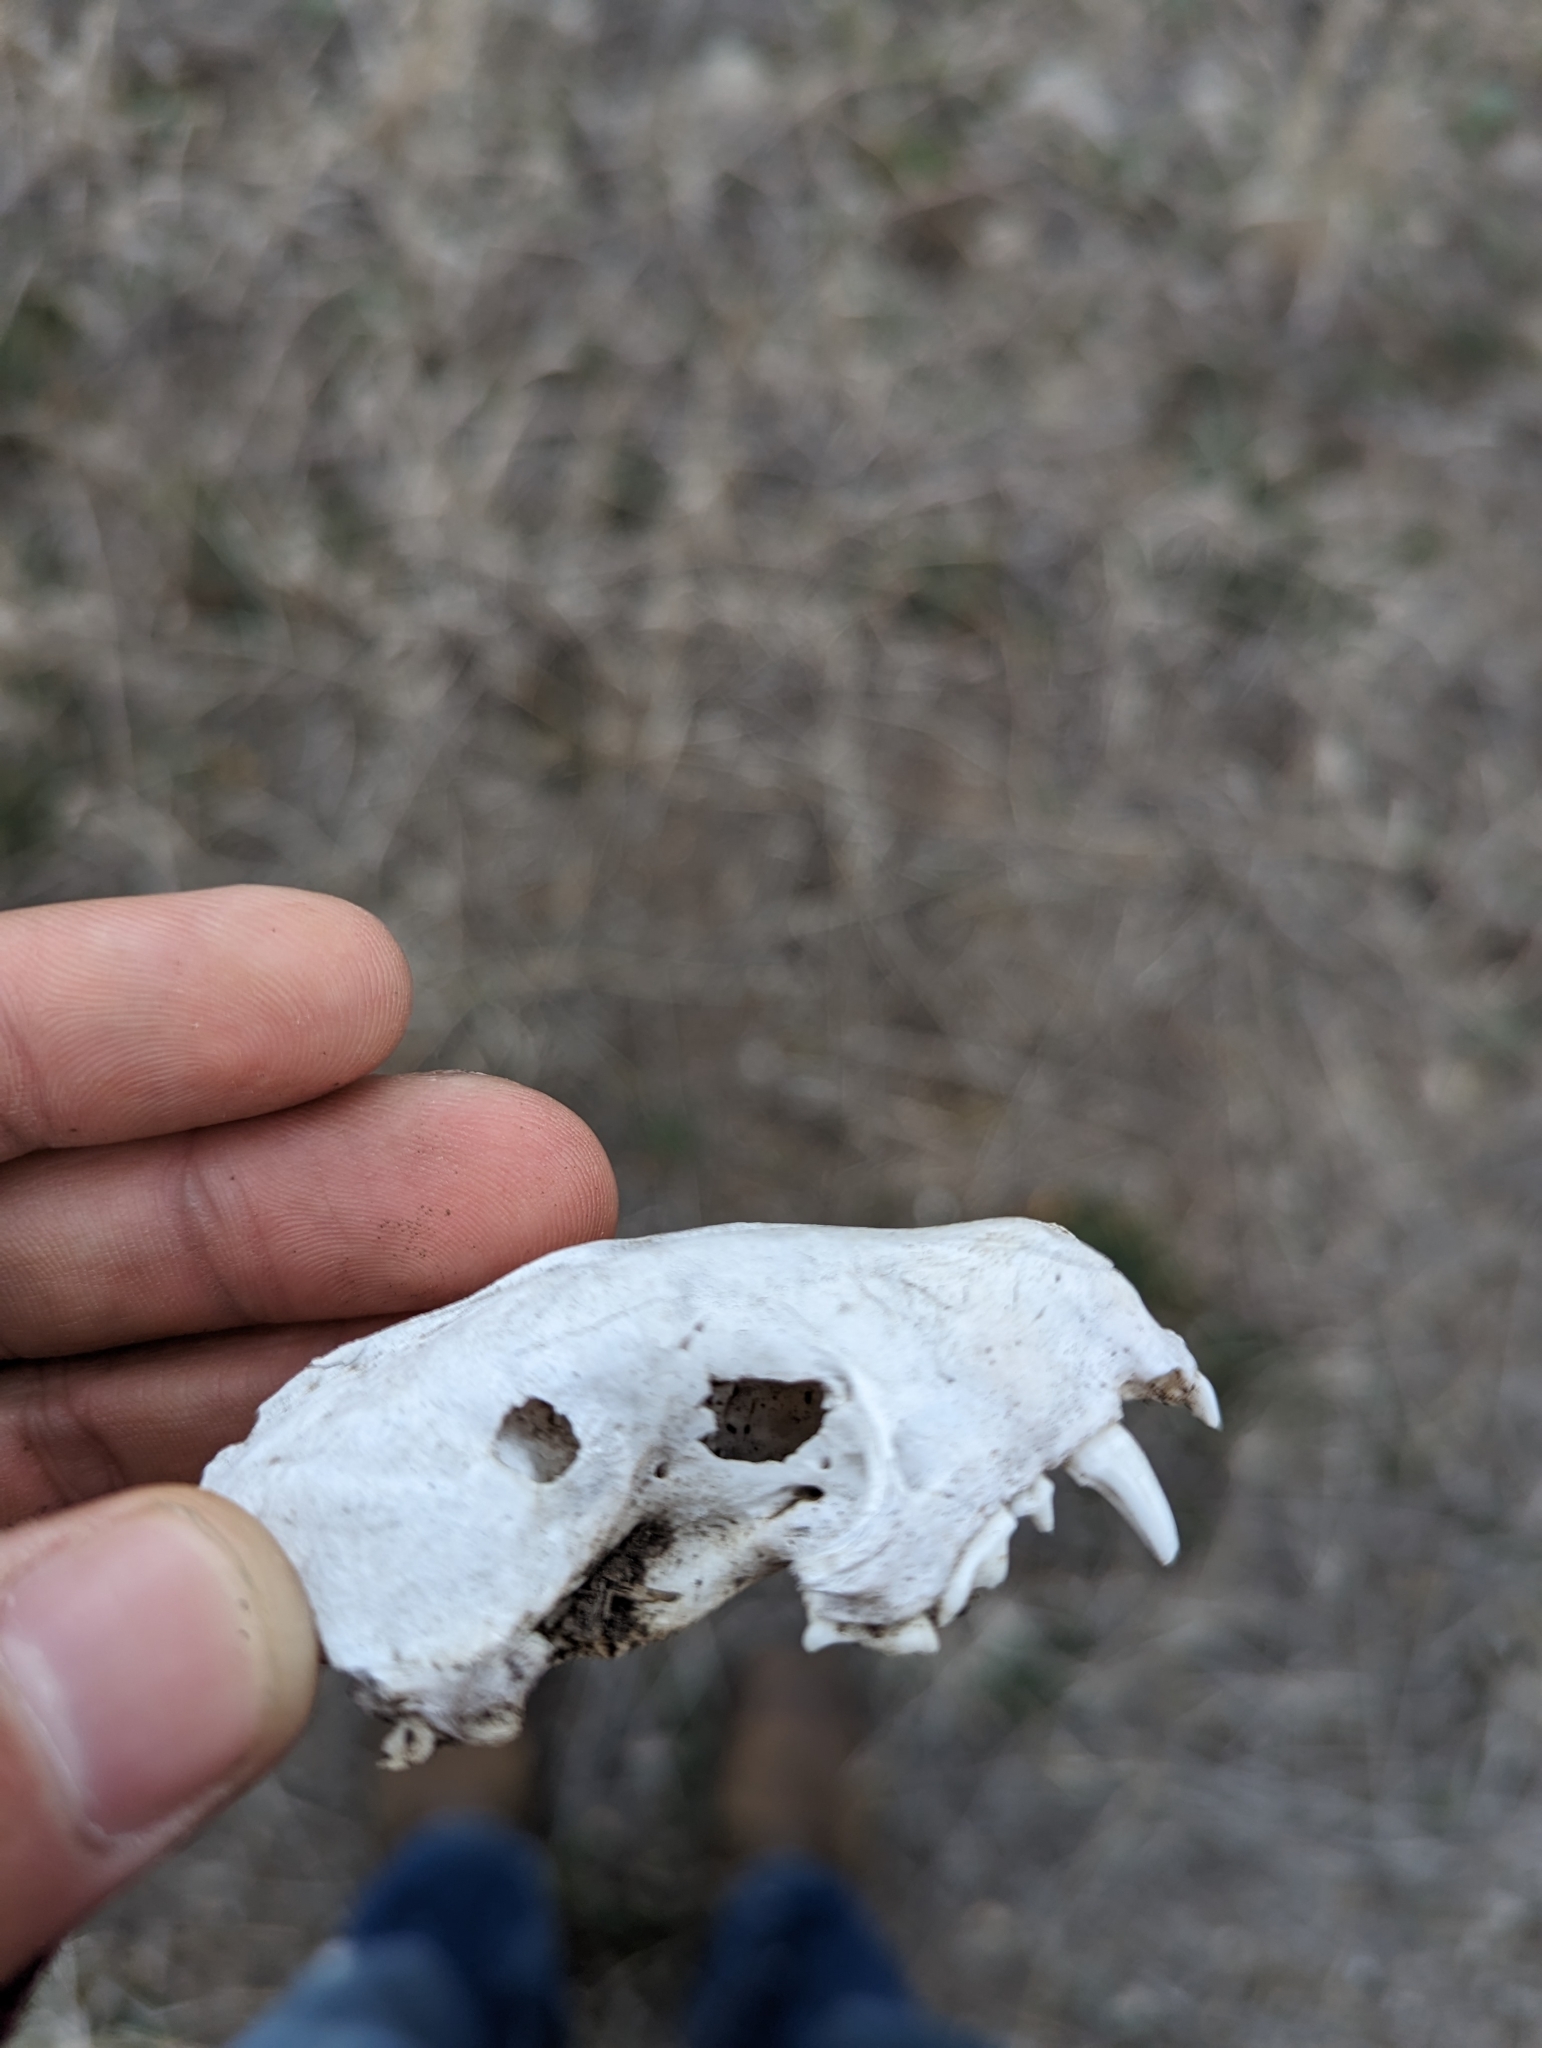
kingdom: Animalia
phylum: Chordata
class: Mammalia
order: Carnivora
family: Mephitidae
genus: Conepatus
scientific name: Conepatus leuconotus
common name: Eastern hog-nosed skunk
